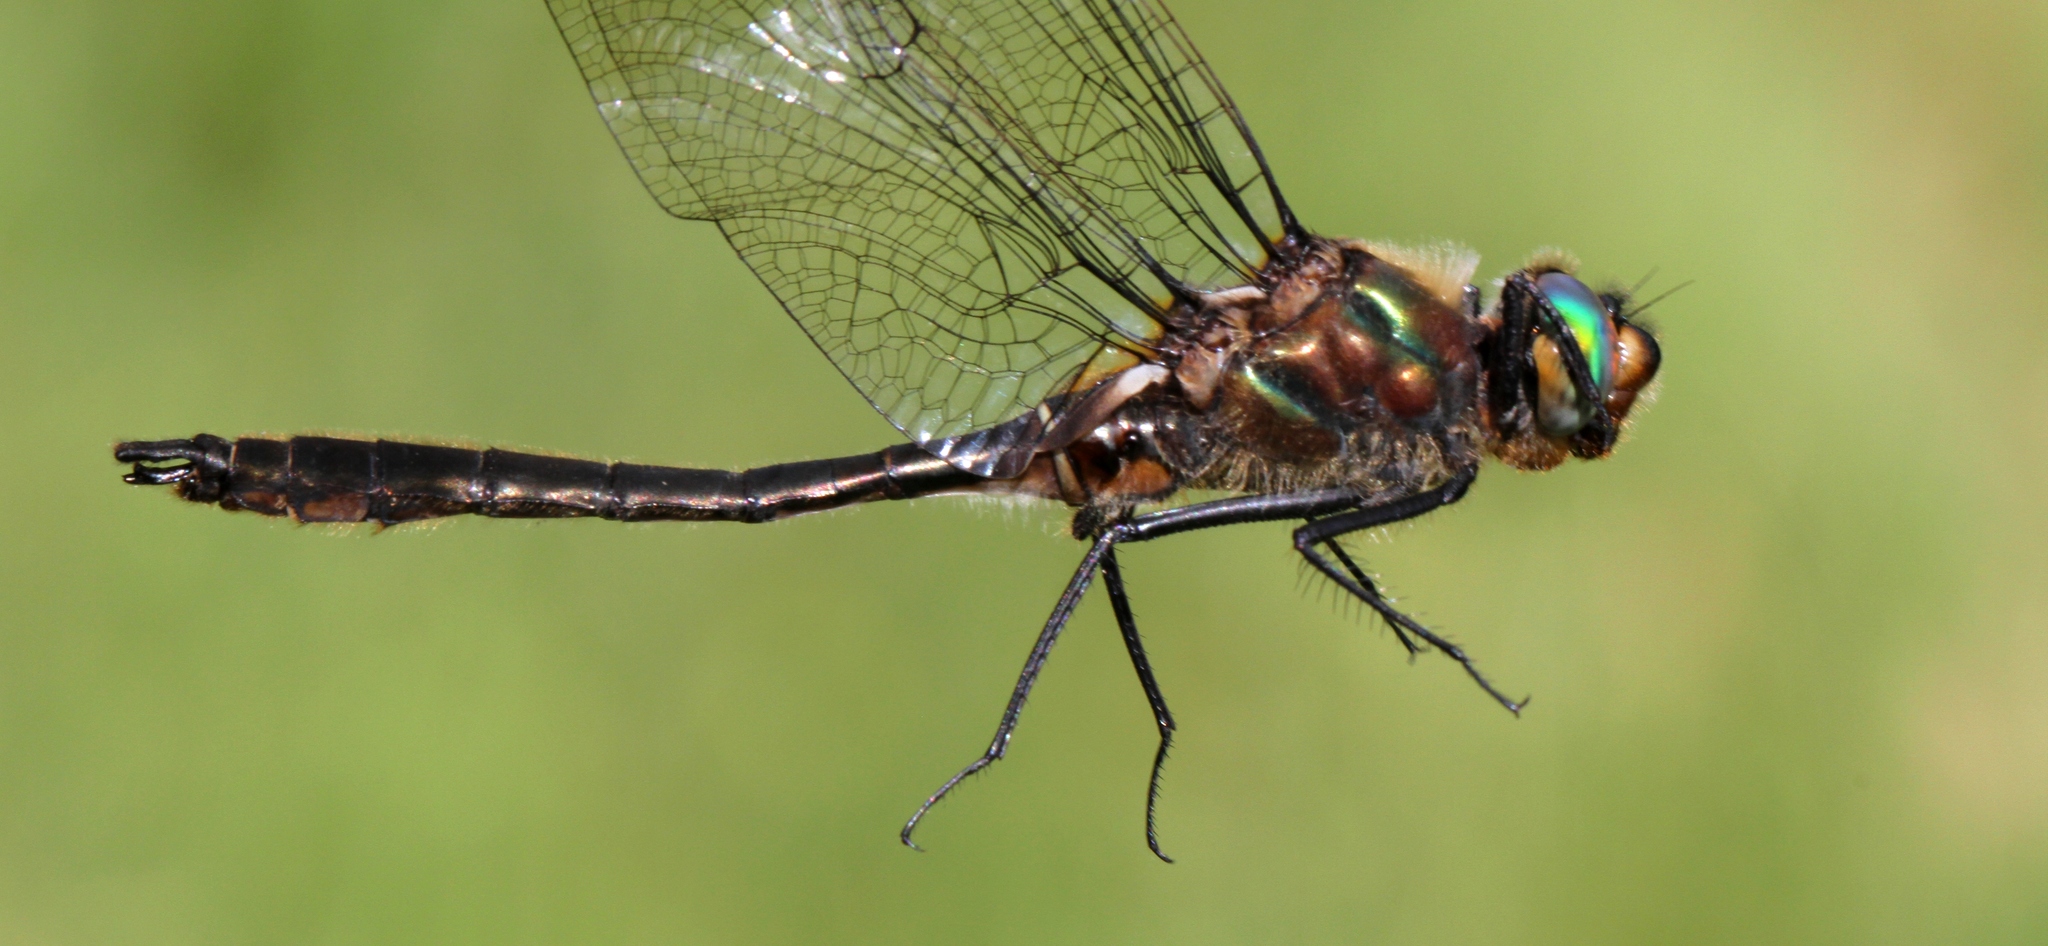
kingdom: Animalia
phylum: Arthropoda
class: Insecta
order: Odonata
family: Corduliidae
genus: Cordulia
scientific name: Cordulia shurtleffii
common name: American emerald
